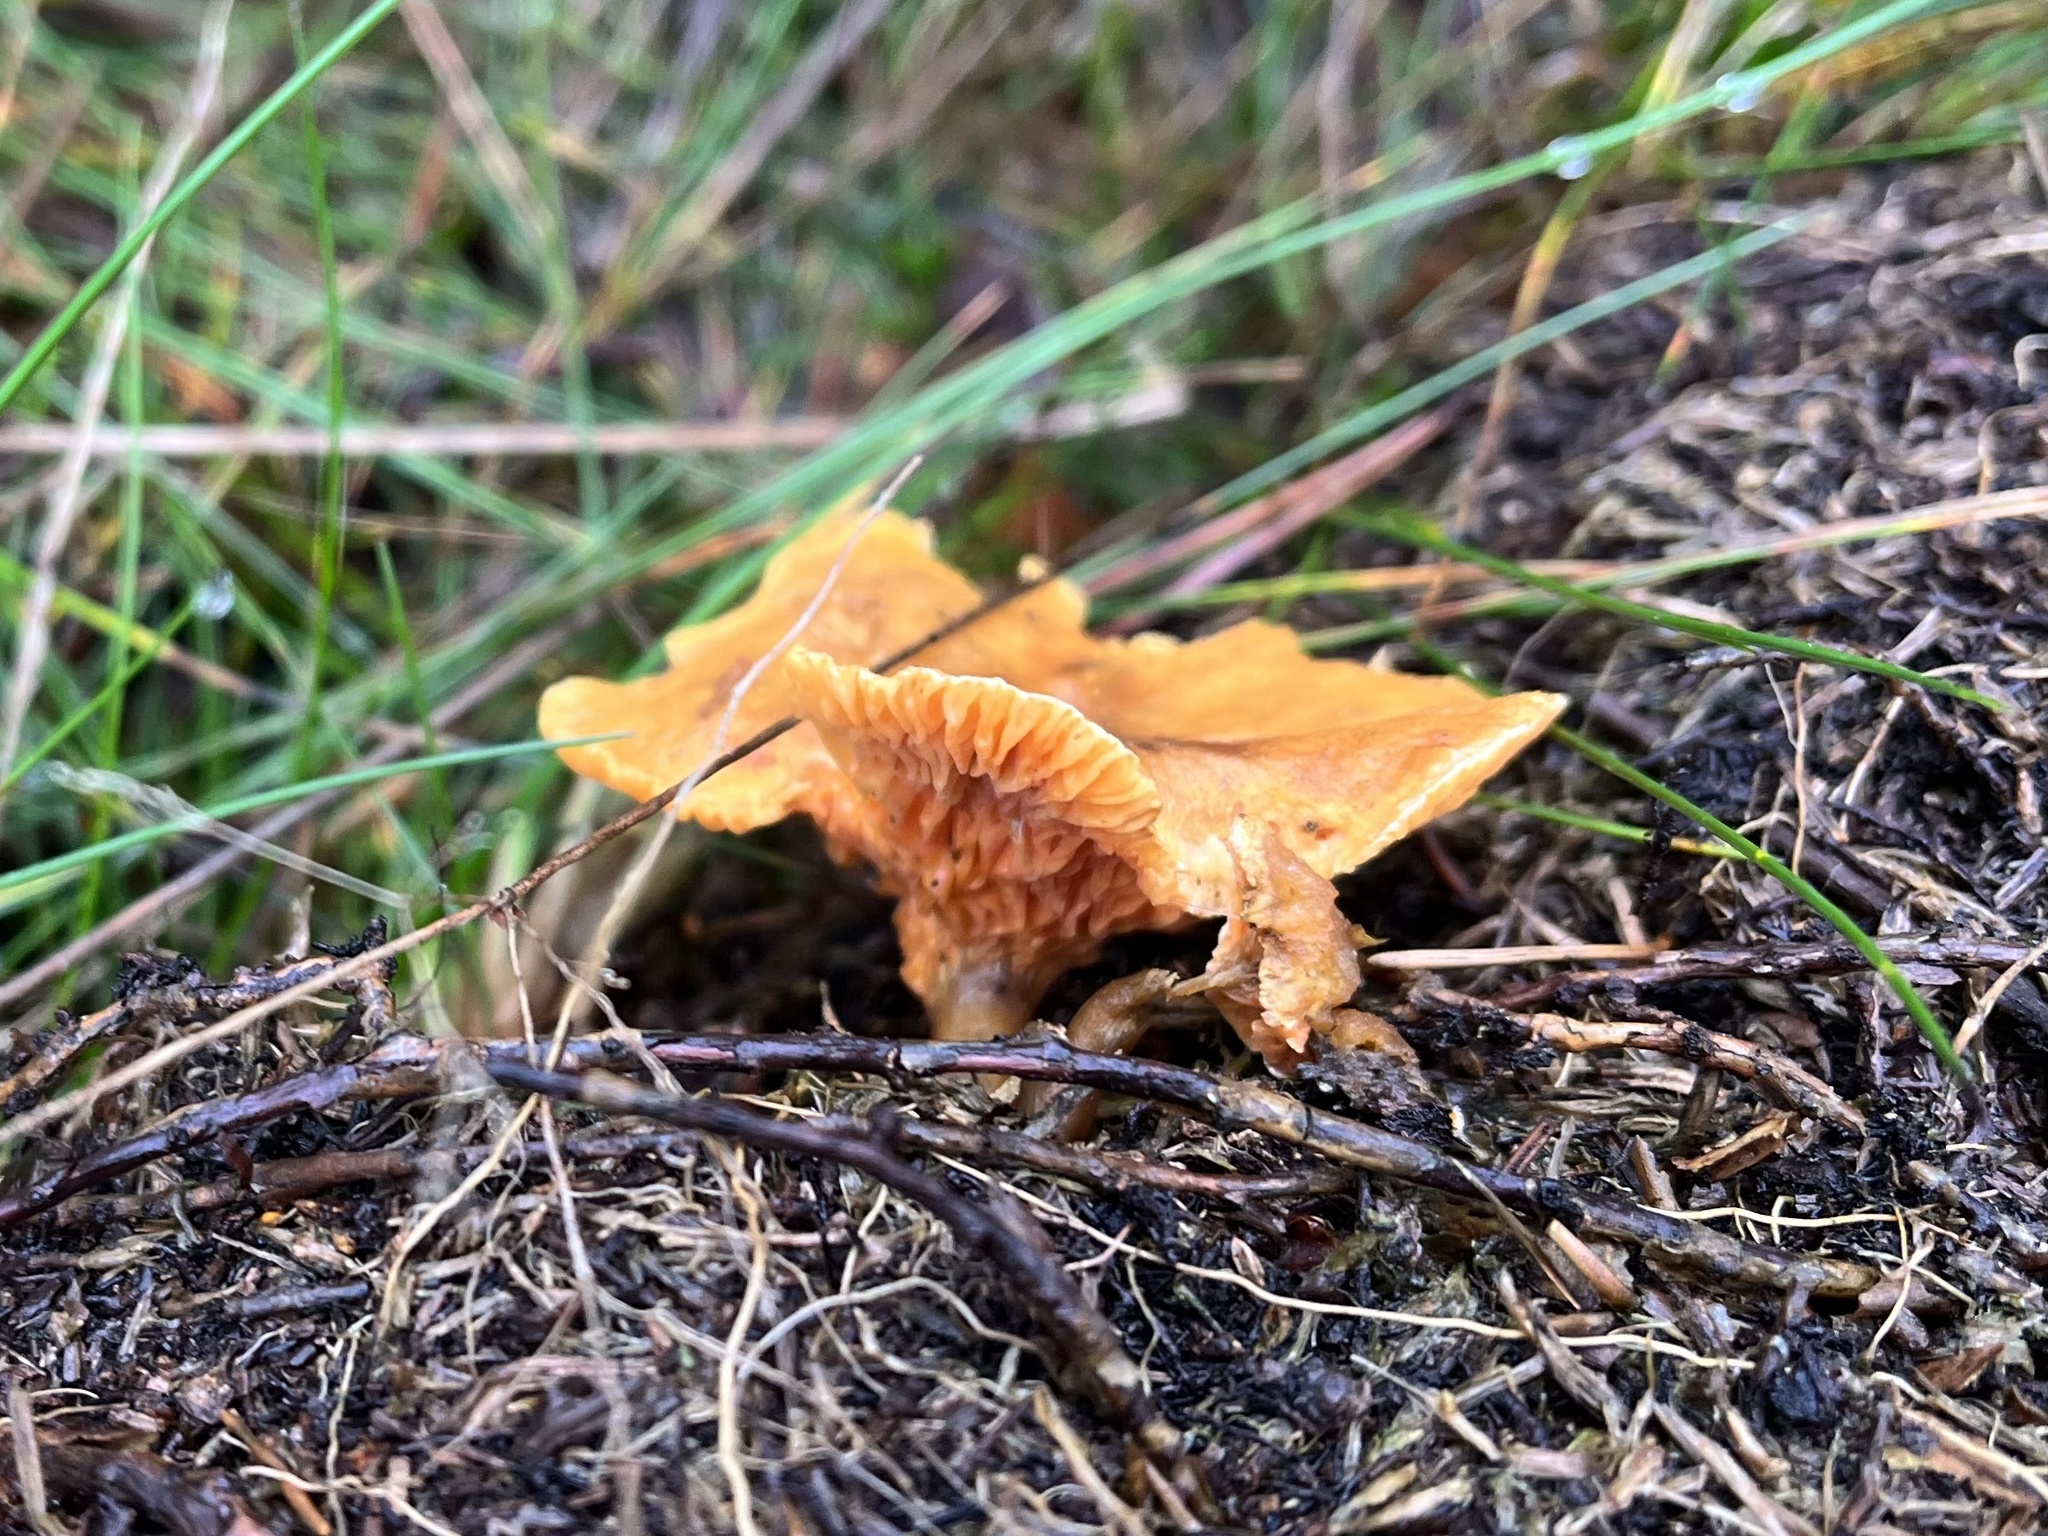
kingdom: Fungi
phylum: Basidiomycota
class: Agaricomycetes
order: Boletales
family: Hygrophoropsidaceae
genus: Hygrophoropsis
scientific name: Hygrophoropsis aurantiaca
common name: False chanterelle
